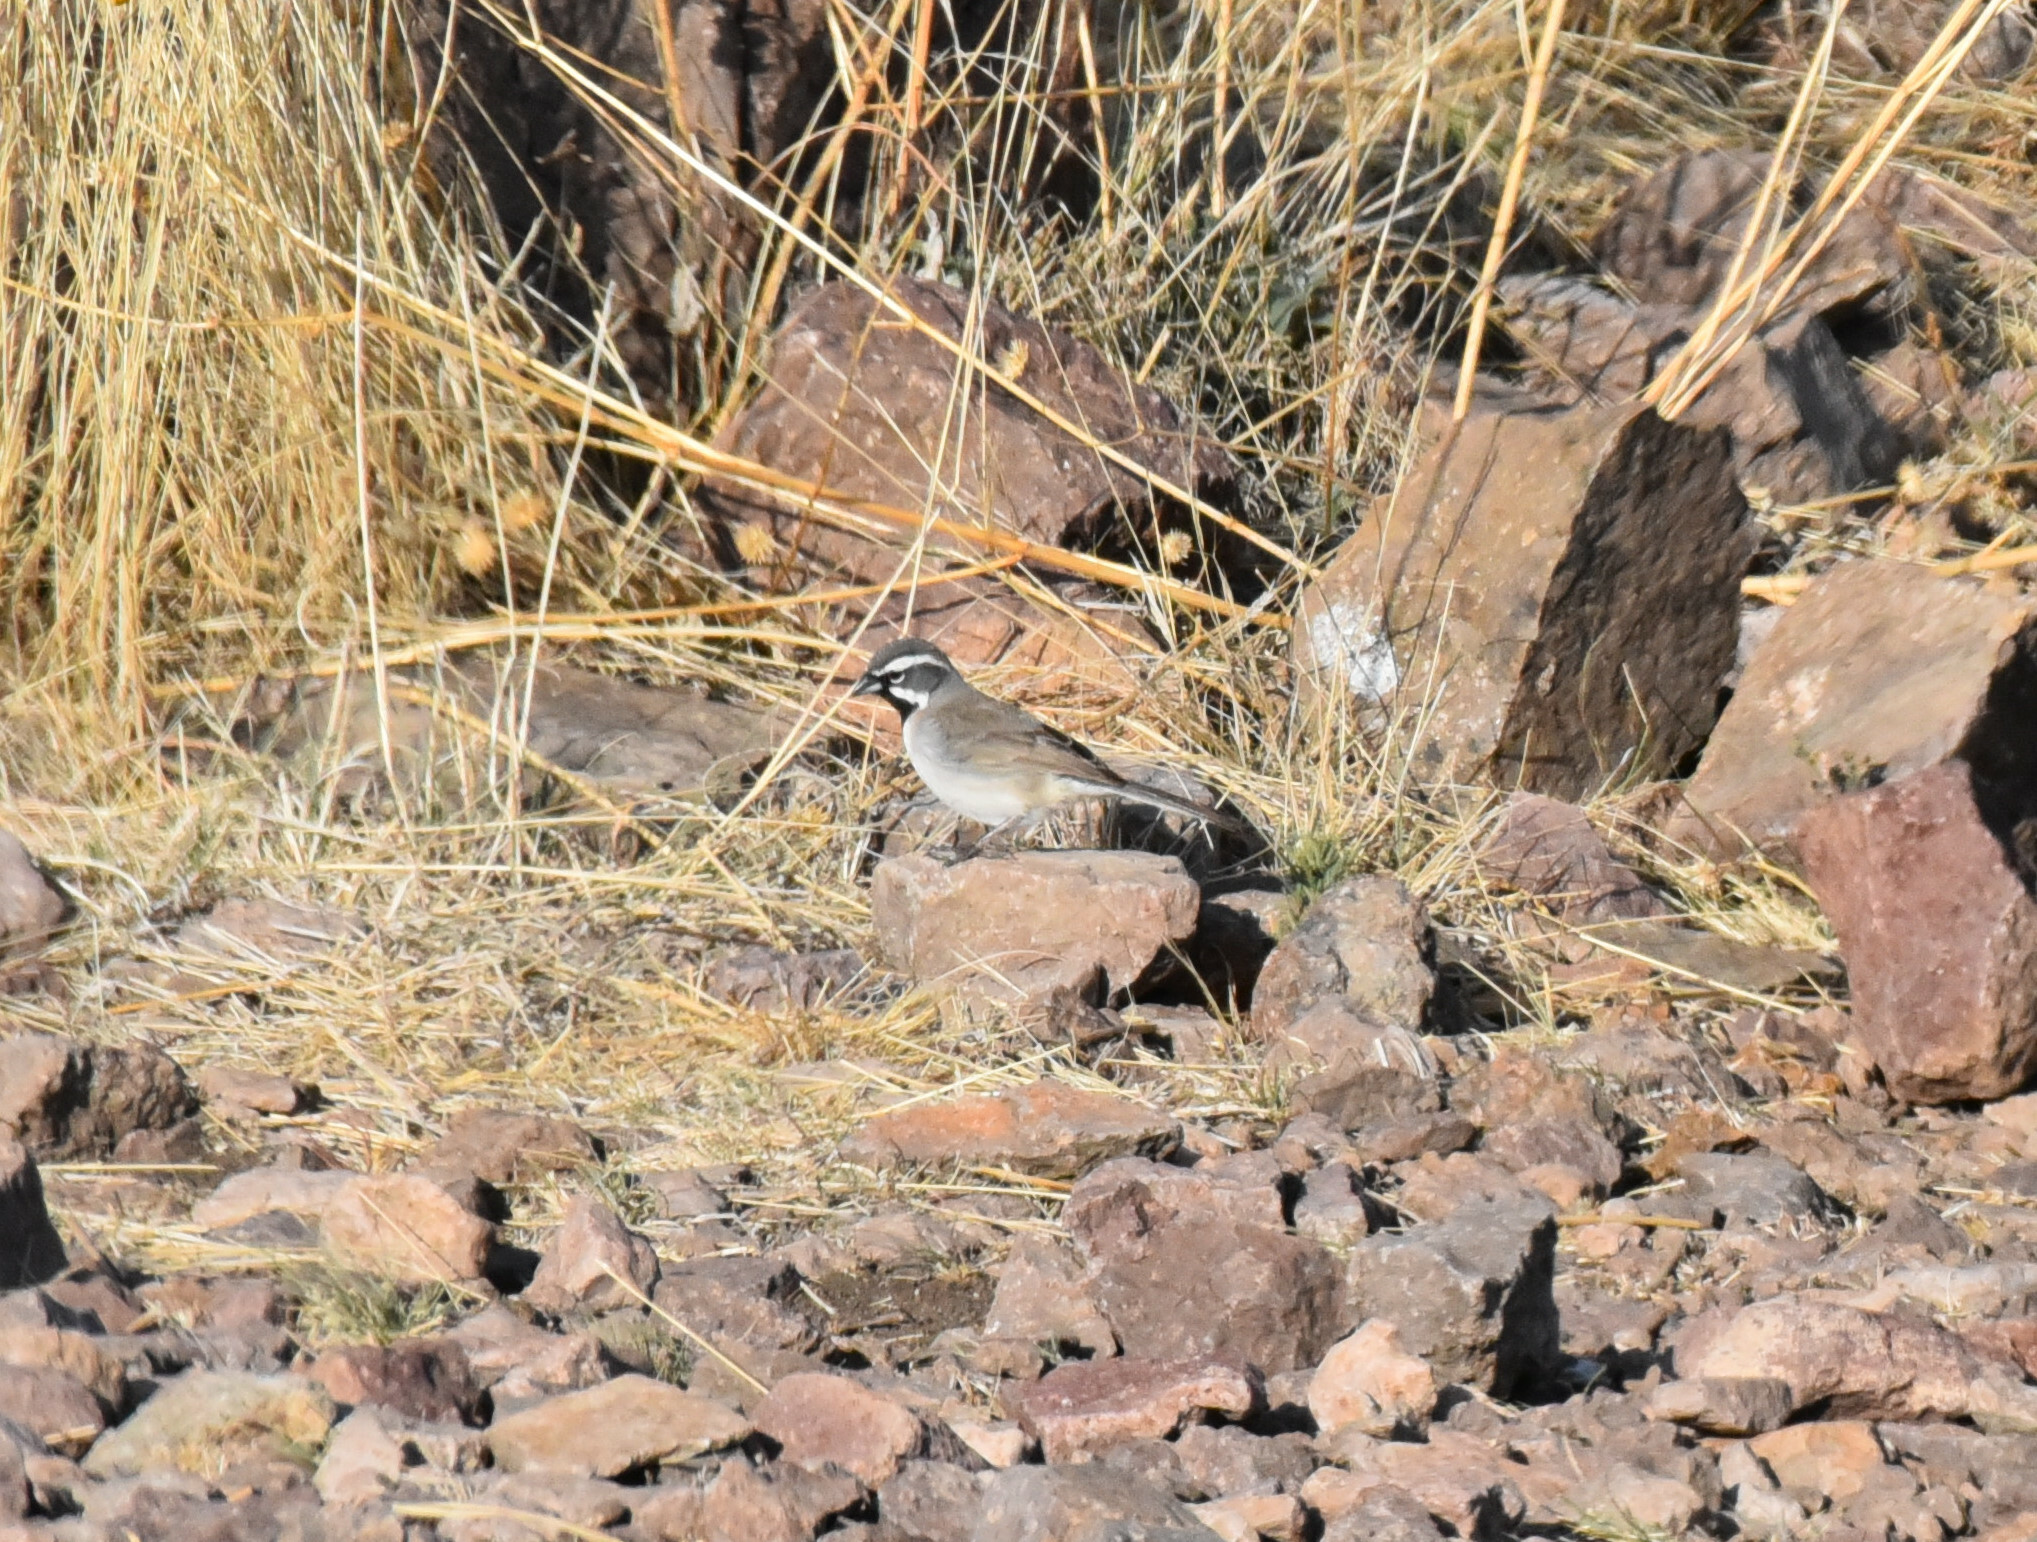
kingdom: Animalia
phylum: Chordata
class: Aves
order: Passeriformes
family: Passerellidae
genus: Amphispiza
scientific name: Amphispiza bilineata
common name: Black-throated sparrow
